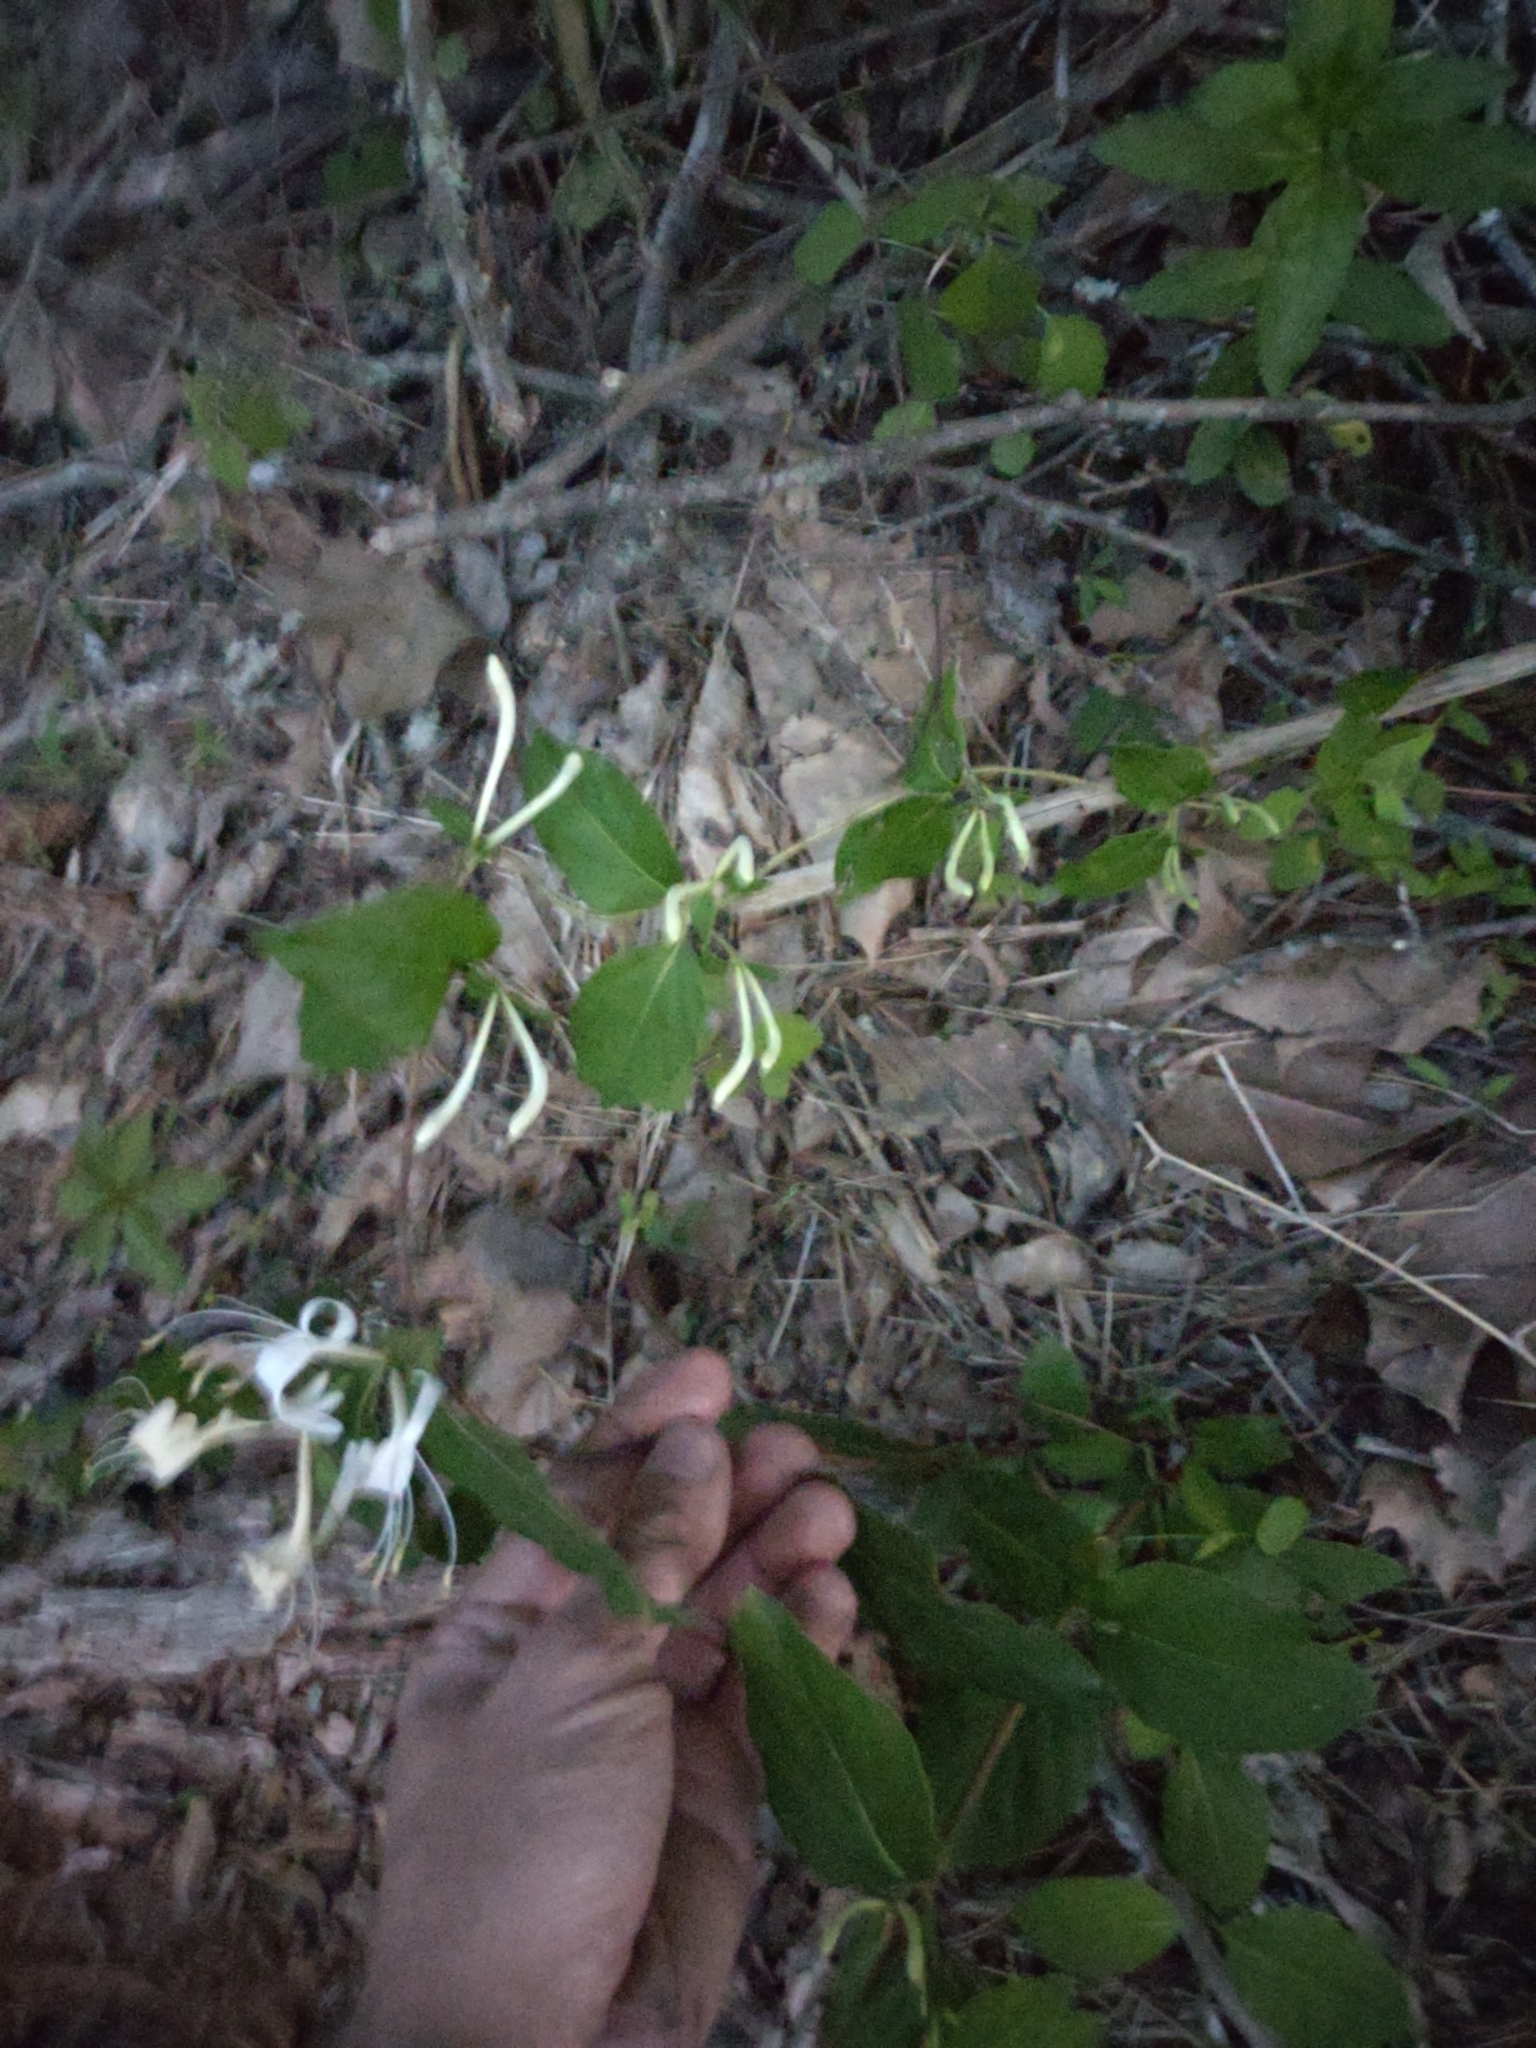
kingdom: Plantae
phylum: Tracheophyta
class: Magnoliopsida
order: Dipsacales
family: Caprifoliaceae
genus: Lonicera
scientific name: Lonicera japonica
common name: Japanese honeysuckle
